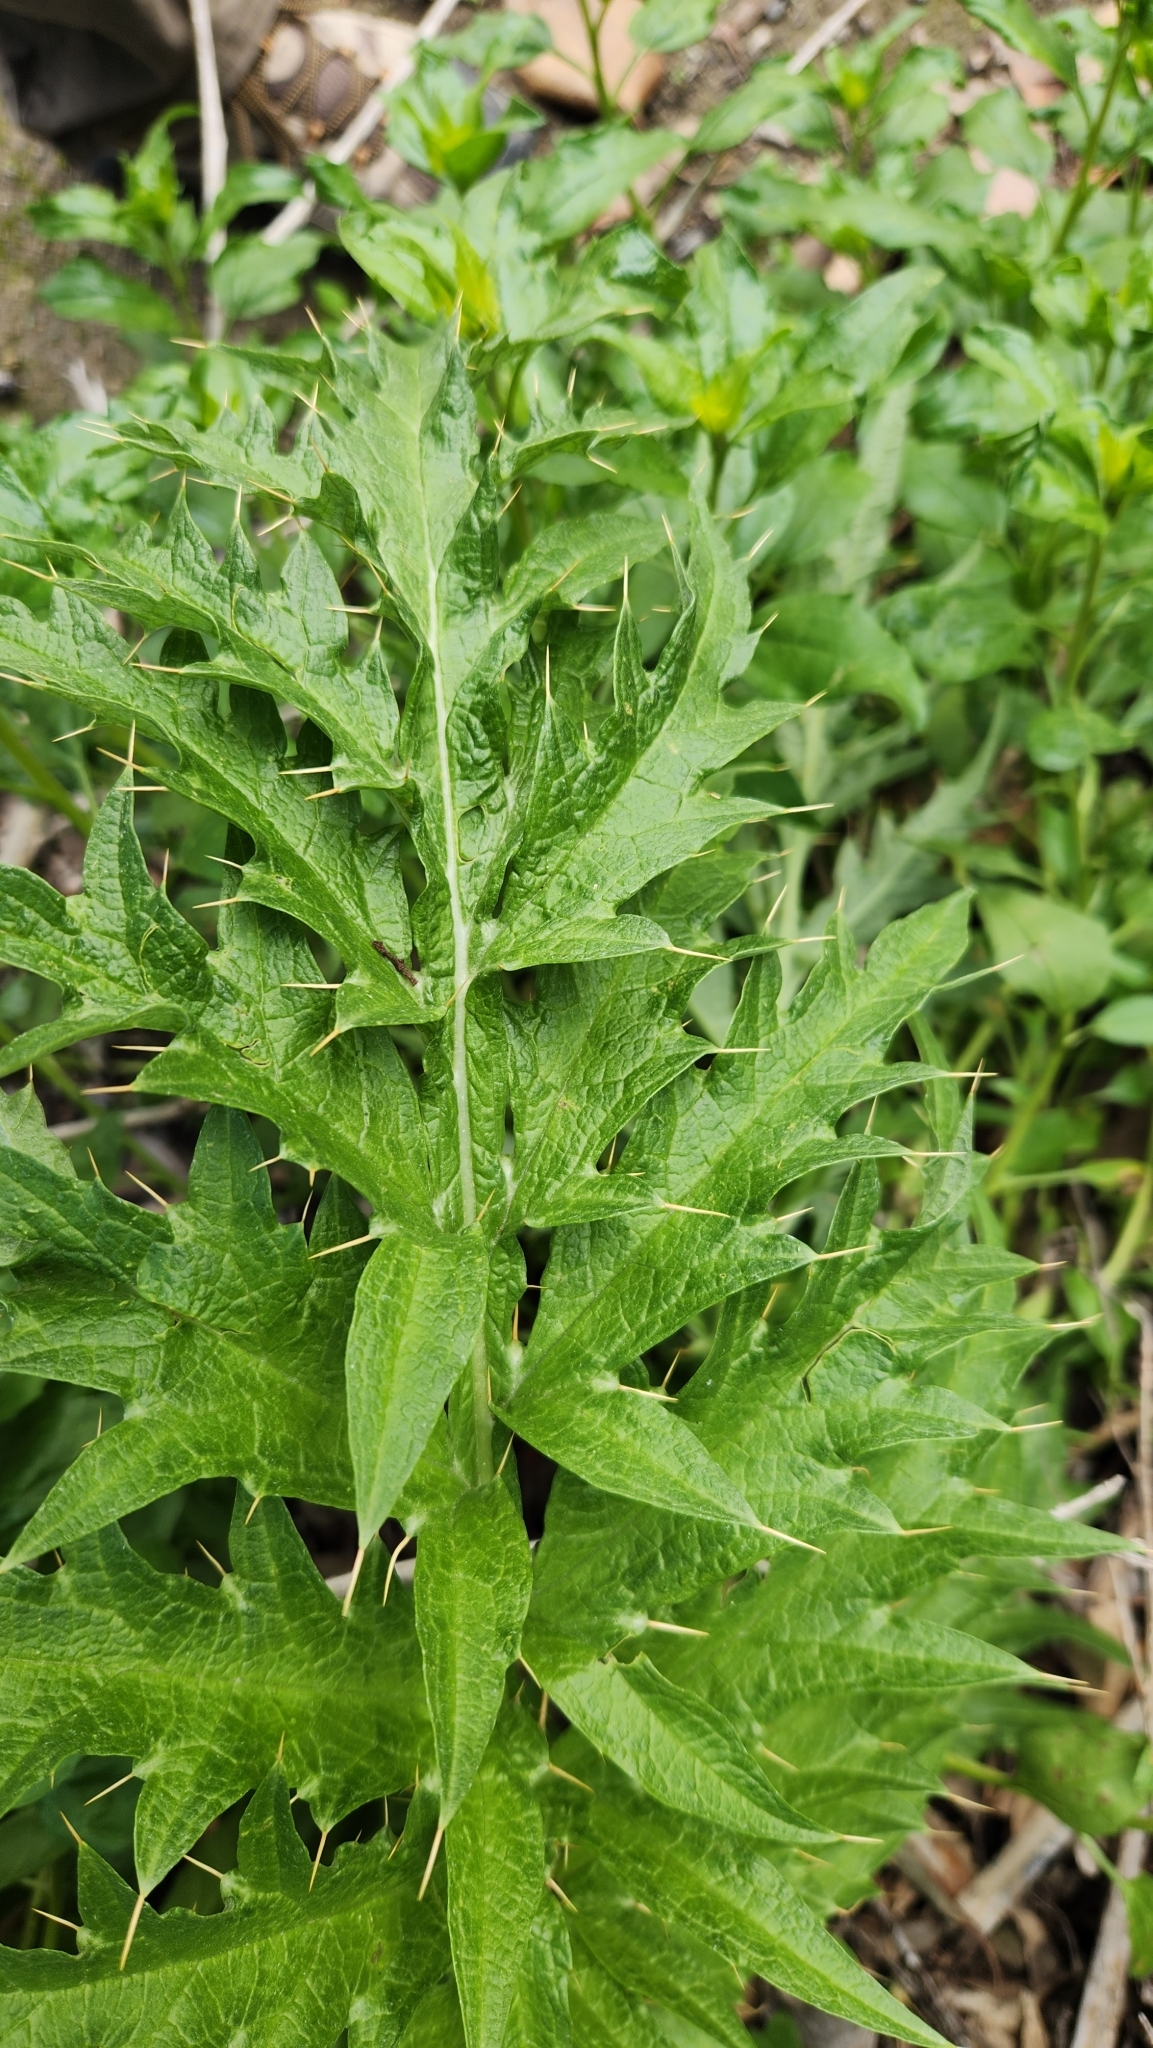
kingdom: Plantae
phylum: Tracheophyta
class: Magnoliopsida
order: Asterales
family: Asteraceae
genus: Cynara
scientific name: Cynara cardunculus
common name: Globe artichoke
